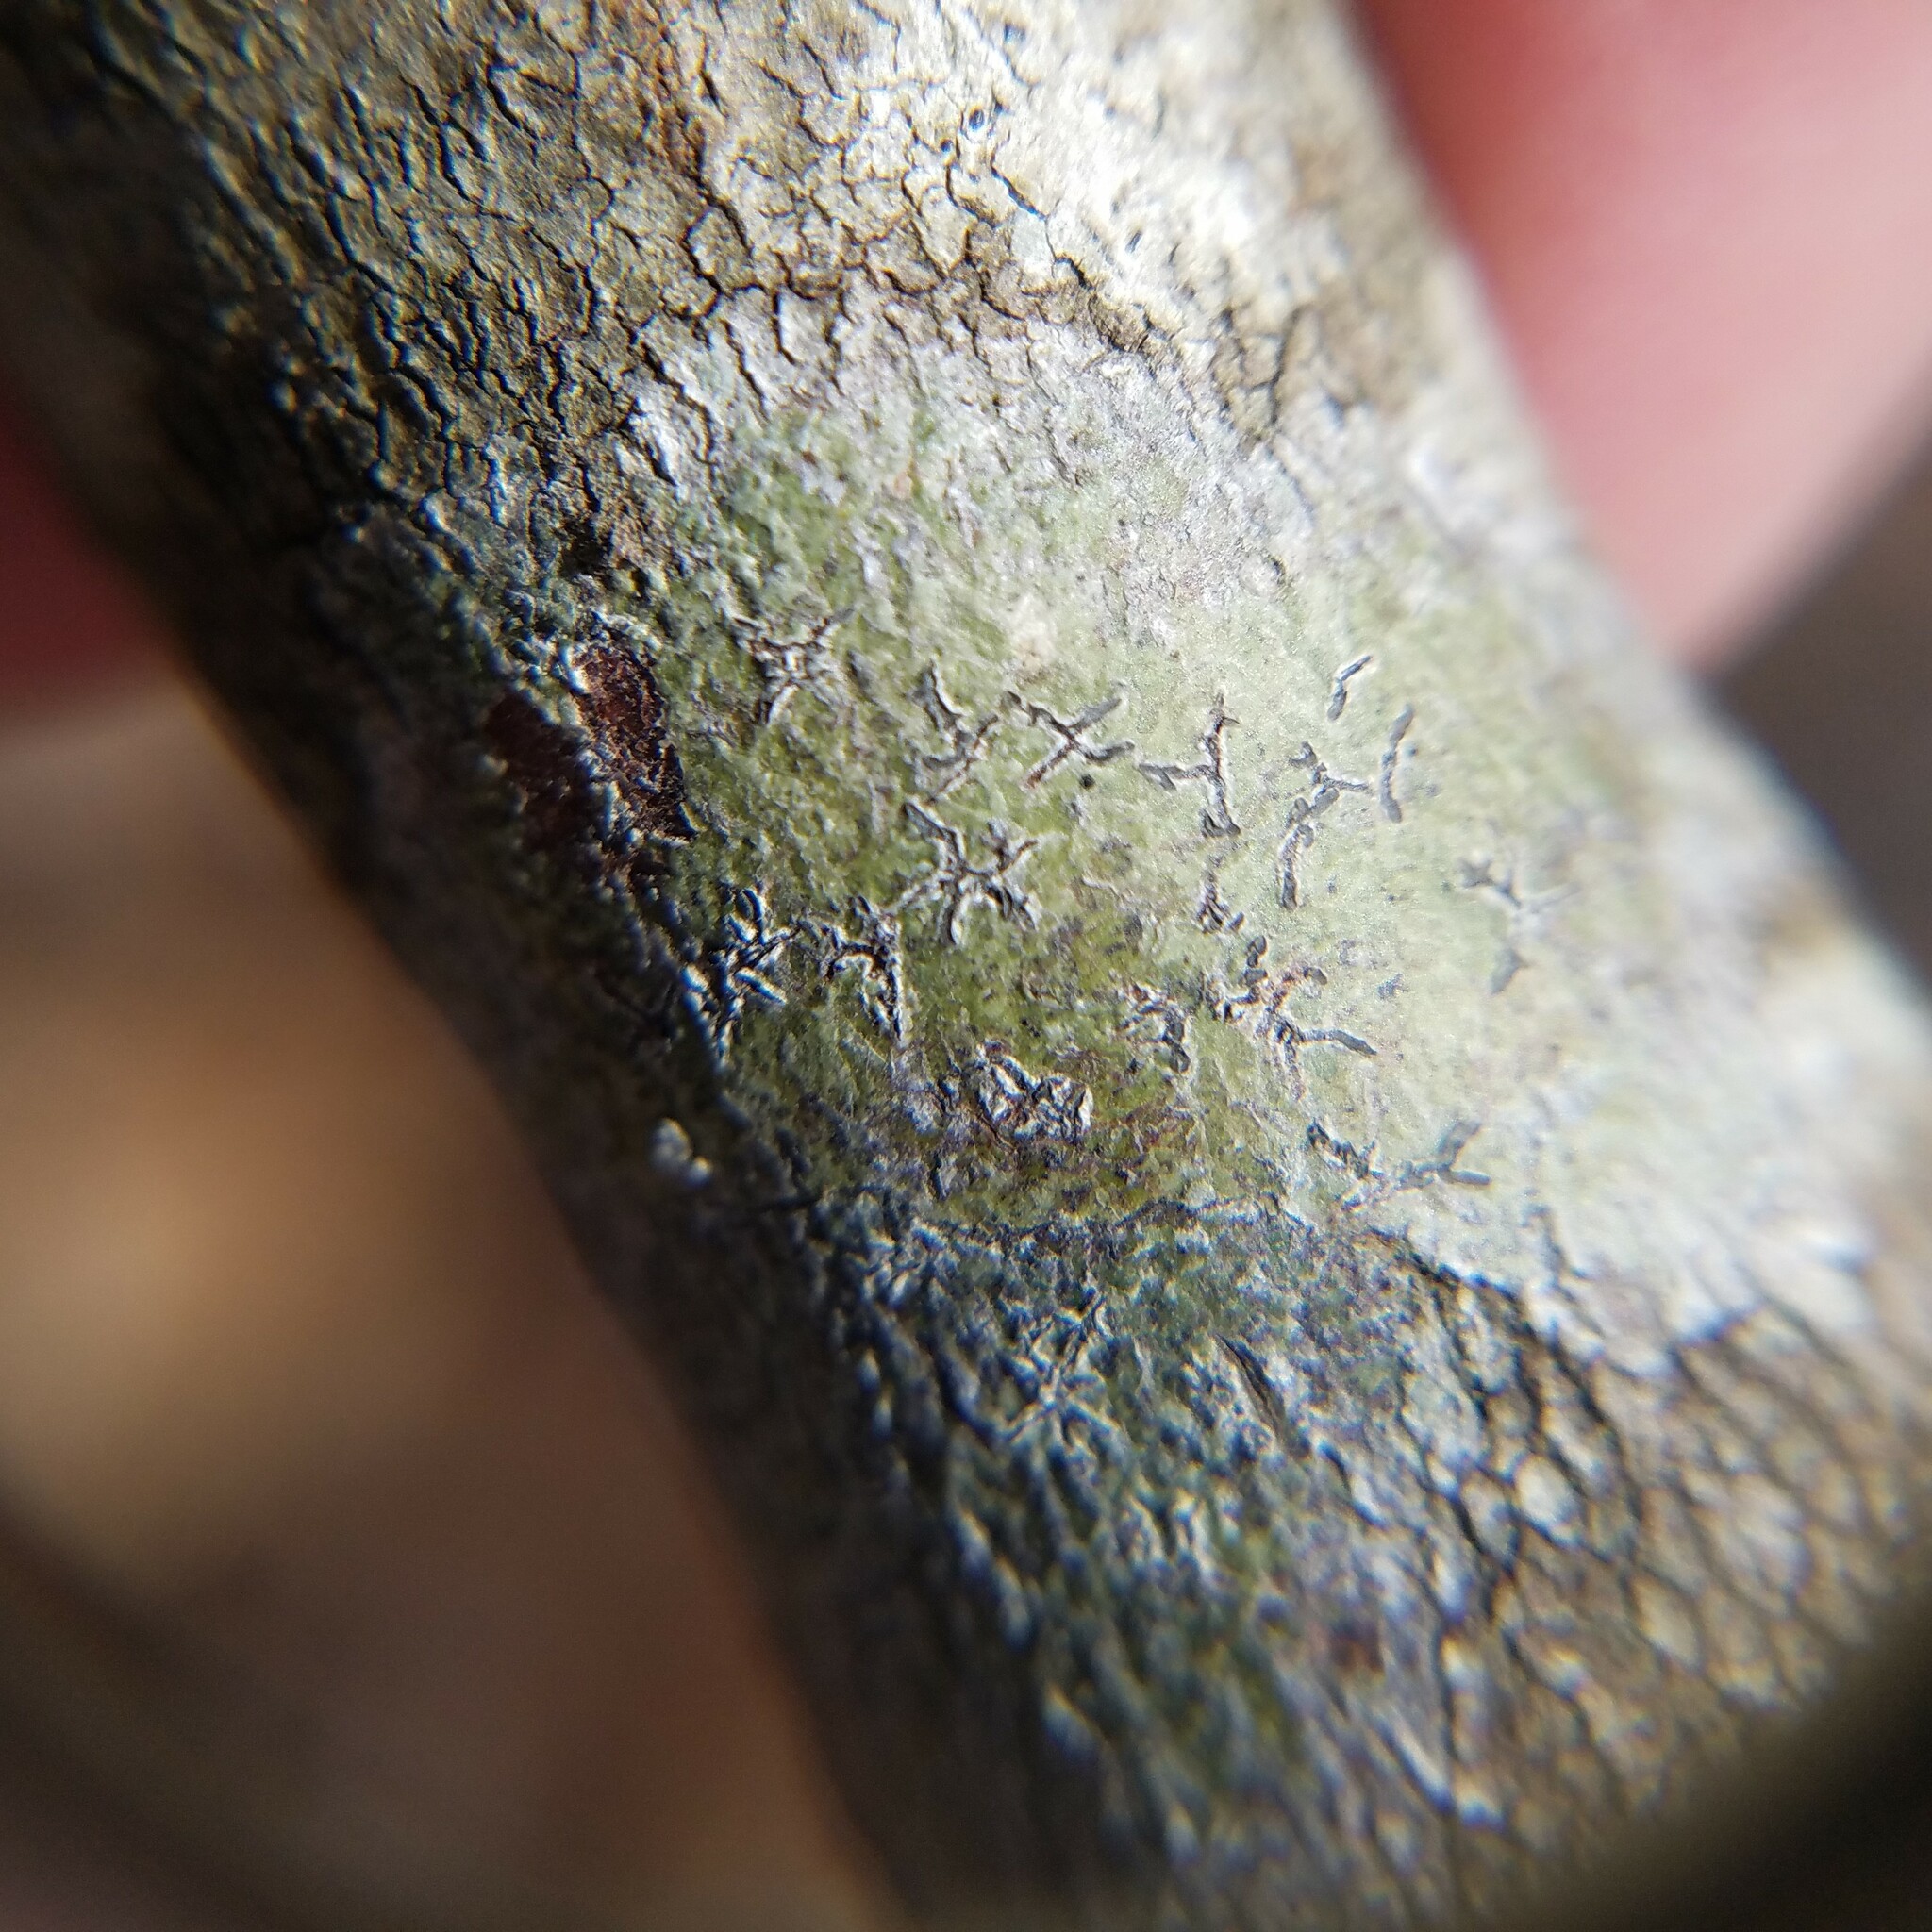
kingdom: Fungi
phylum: Ascomycota
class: Lecanoromycetes
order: Ostropales
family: Graphidaceae
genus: Creographa
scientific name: Creographa brasiliensis
